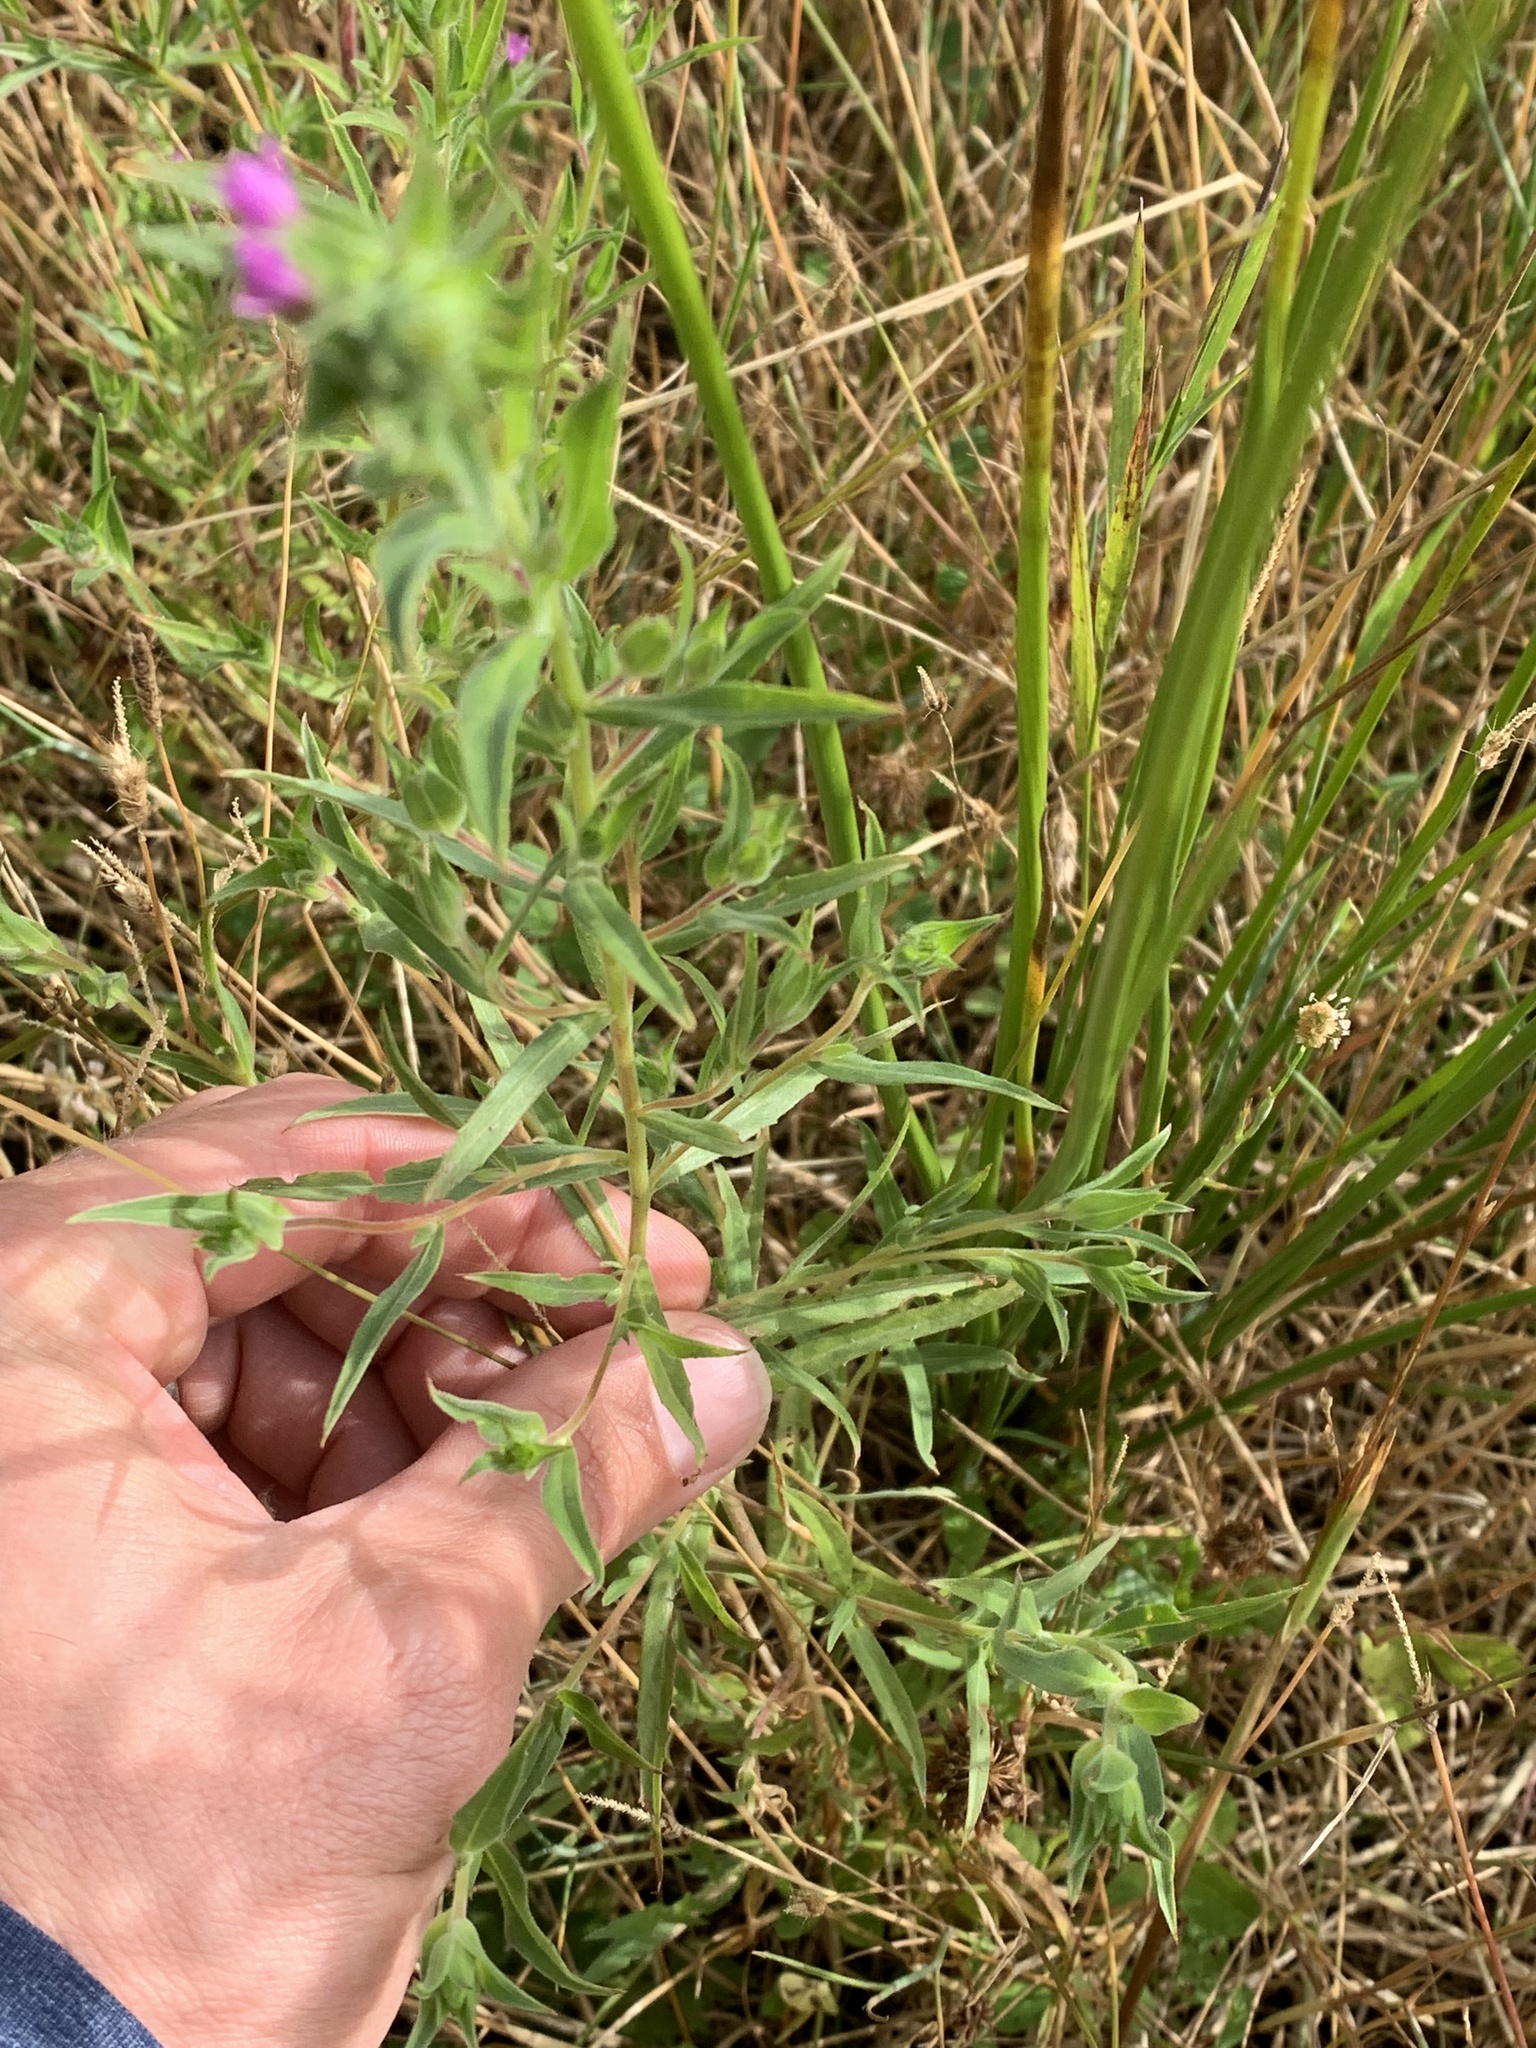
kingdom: Plantae
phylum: Tracheophyta
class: Magnoliopsida
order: Myrtales
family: Onagraceae
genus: Epilobium
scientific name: Epilobium densiflorum
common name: Dense spike-primrose
